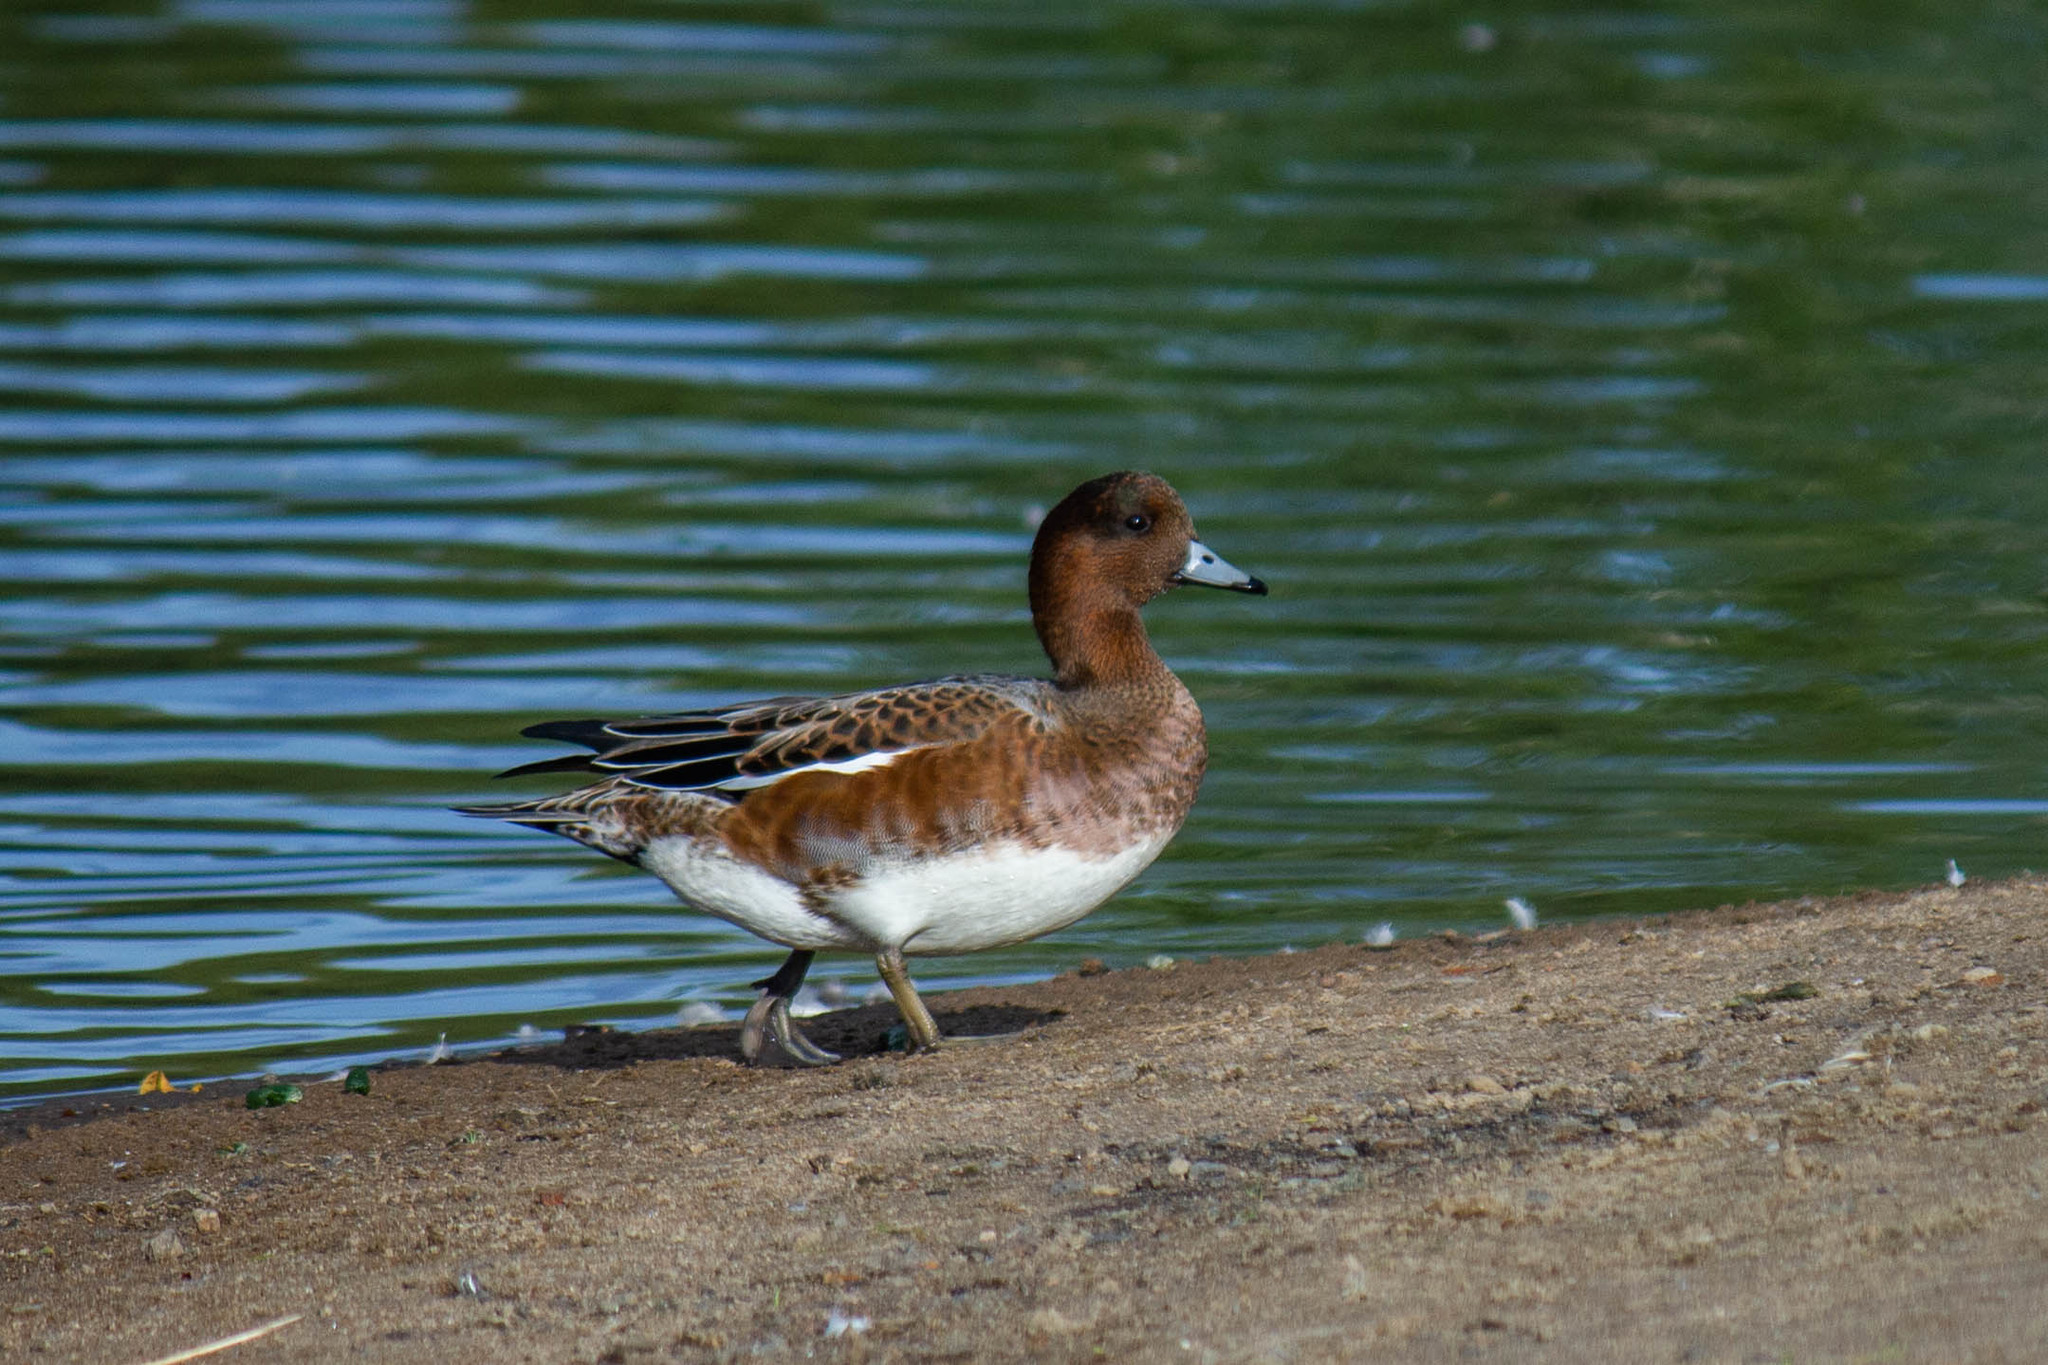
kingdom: Animalia
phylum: Chordata
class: Aves
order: Anseriformes
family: Anatidae
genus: Mareca
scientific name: Mareca penelope
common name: Eurasian wigeon
